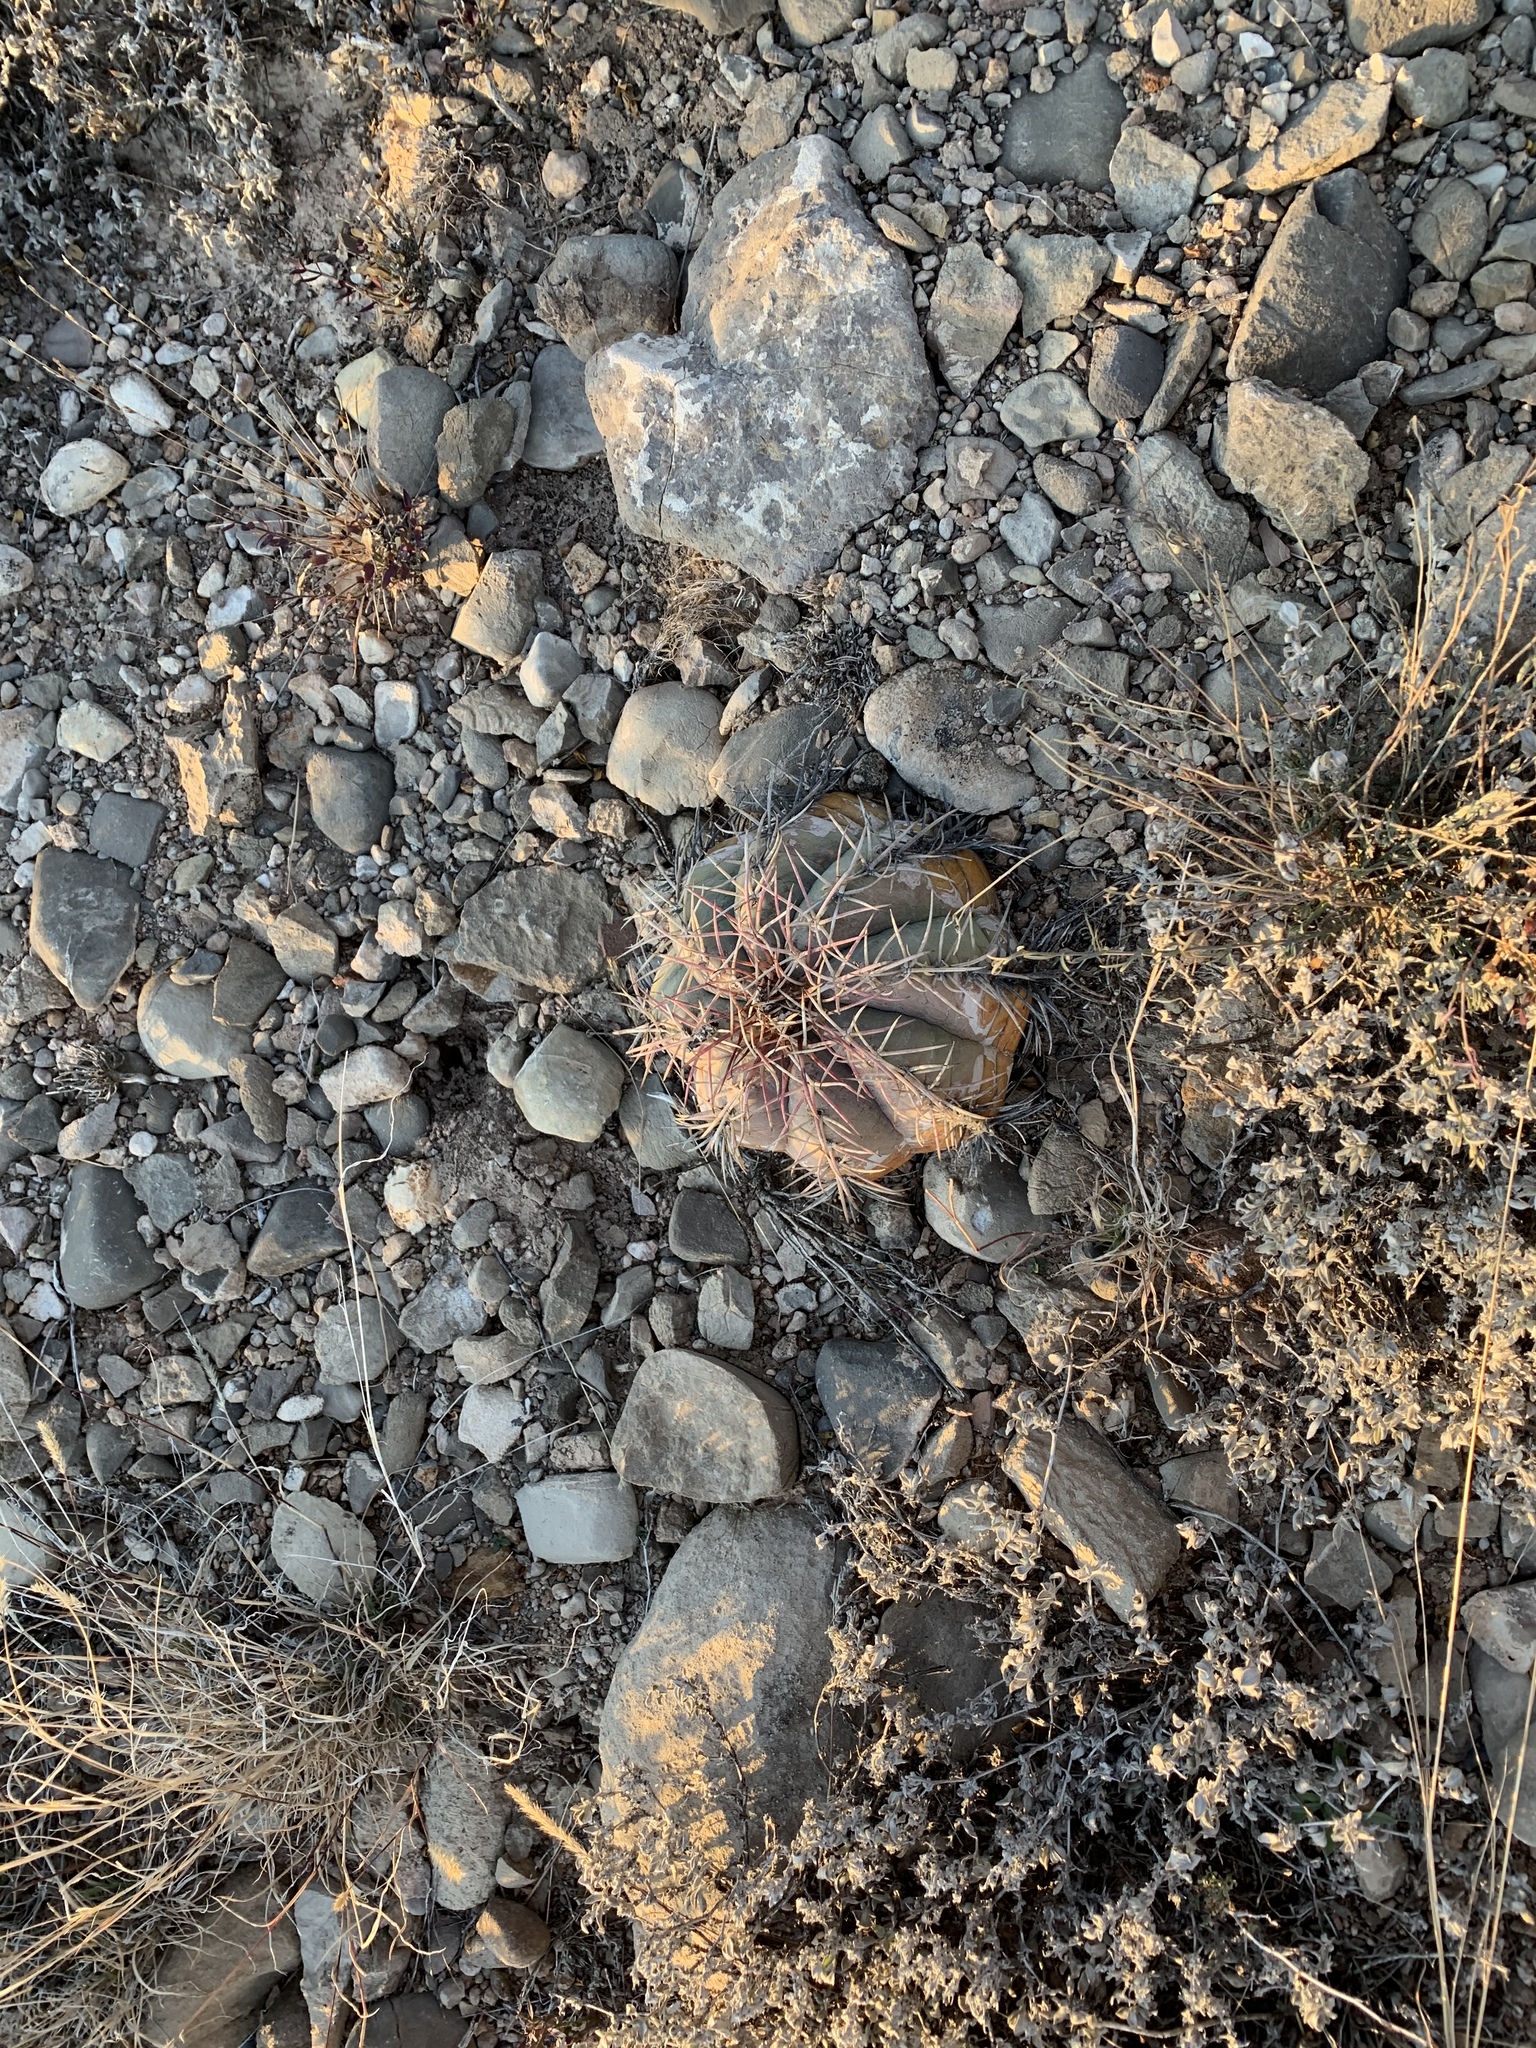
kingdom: Plantae
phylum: Tracheophyta
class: Magnoliopsida
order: Caryophyllales
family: Cactaceae
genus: Echinocactus
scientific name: Echinocactus horizonthalonius
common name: Devilshead
